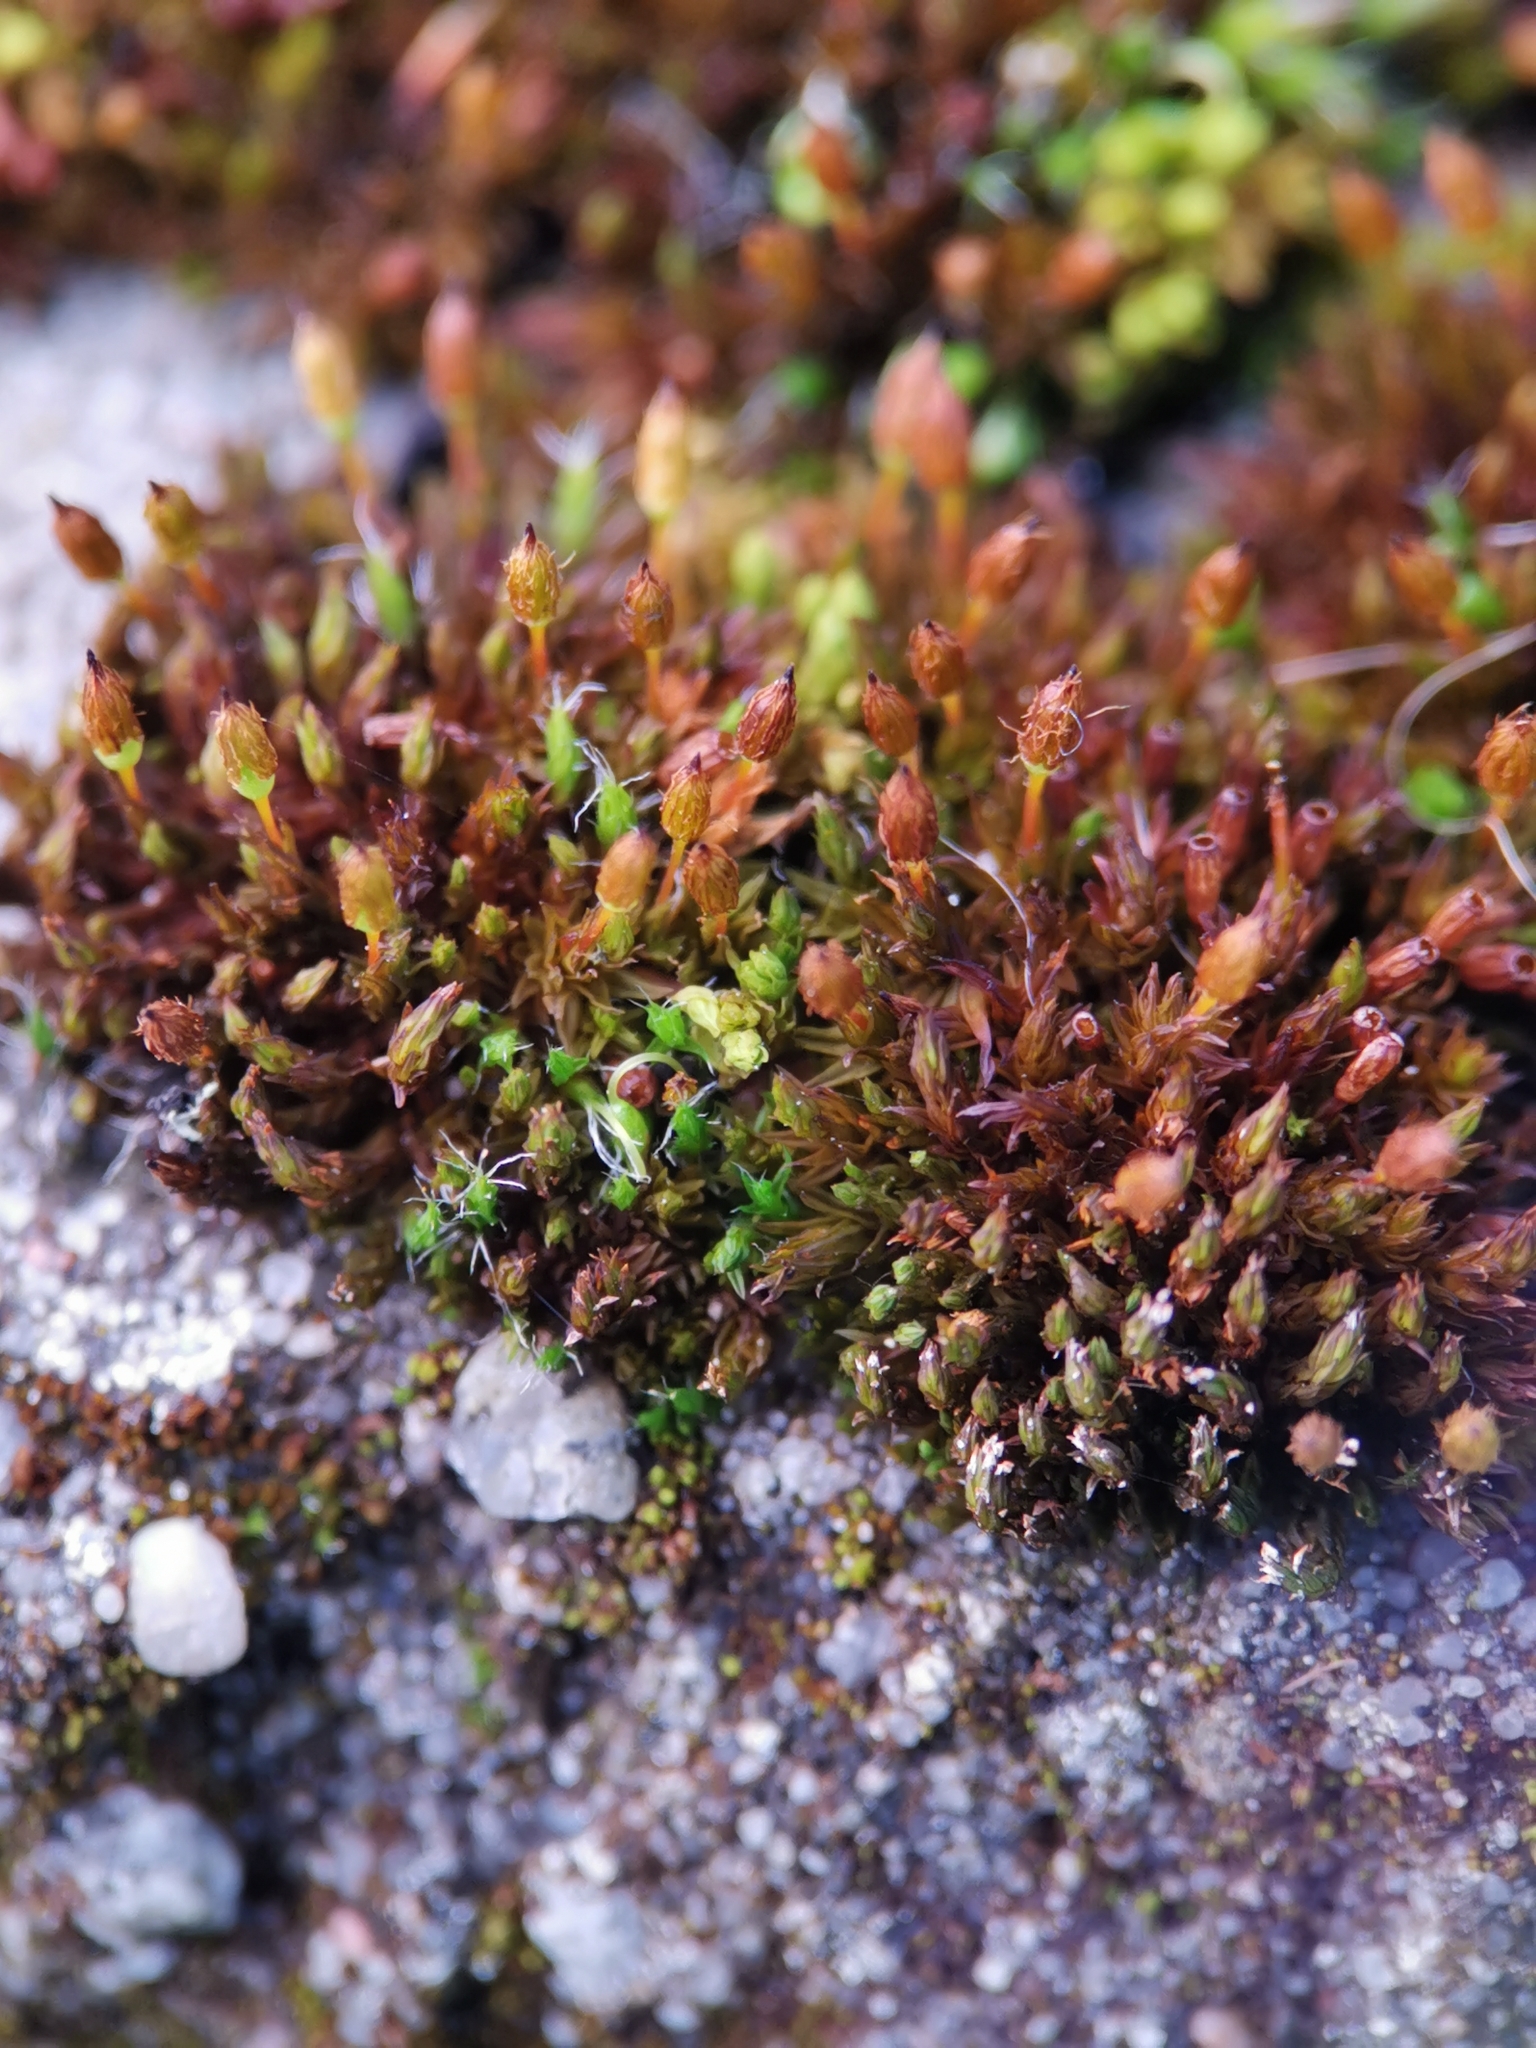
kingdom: Plantae
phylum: Bryophyta
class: Bryopsida
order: Orthotrichales
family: Orthotrichaceae
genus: Orthotrichum
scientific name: Orthotrichum anomalum
